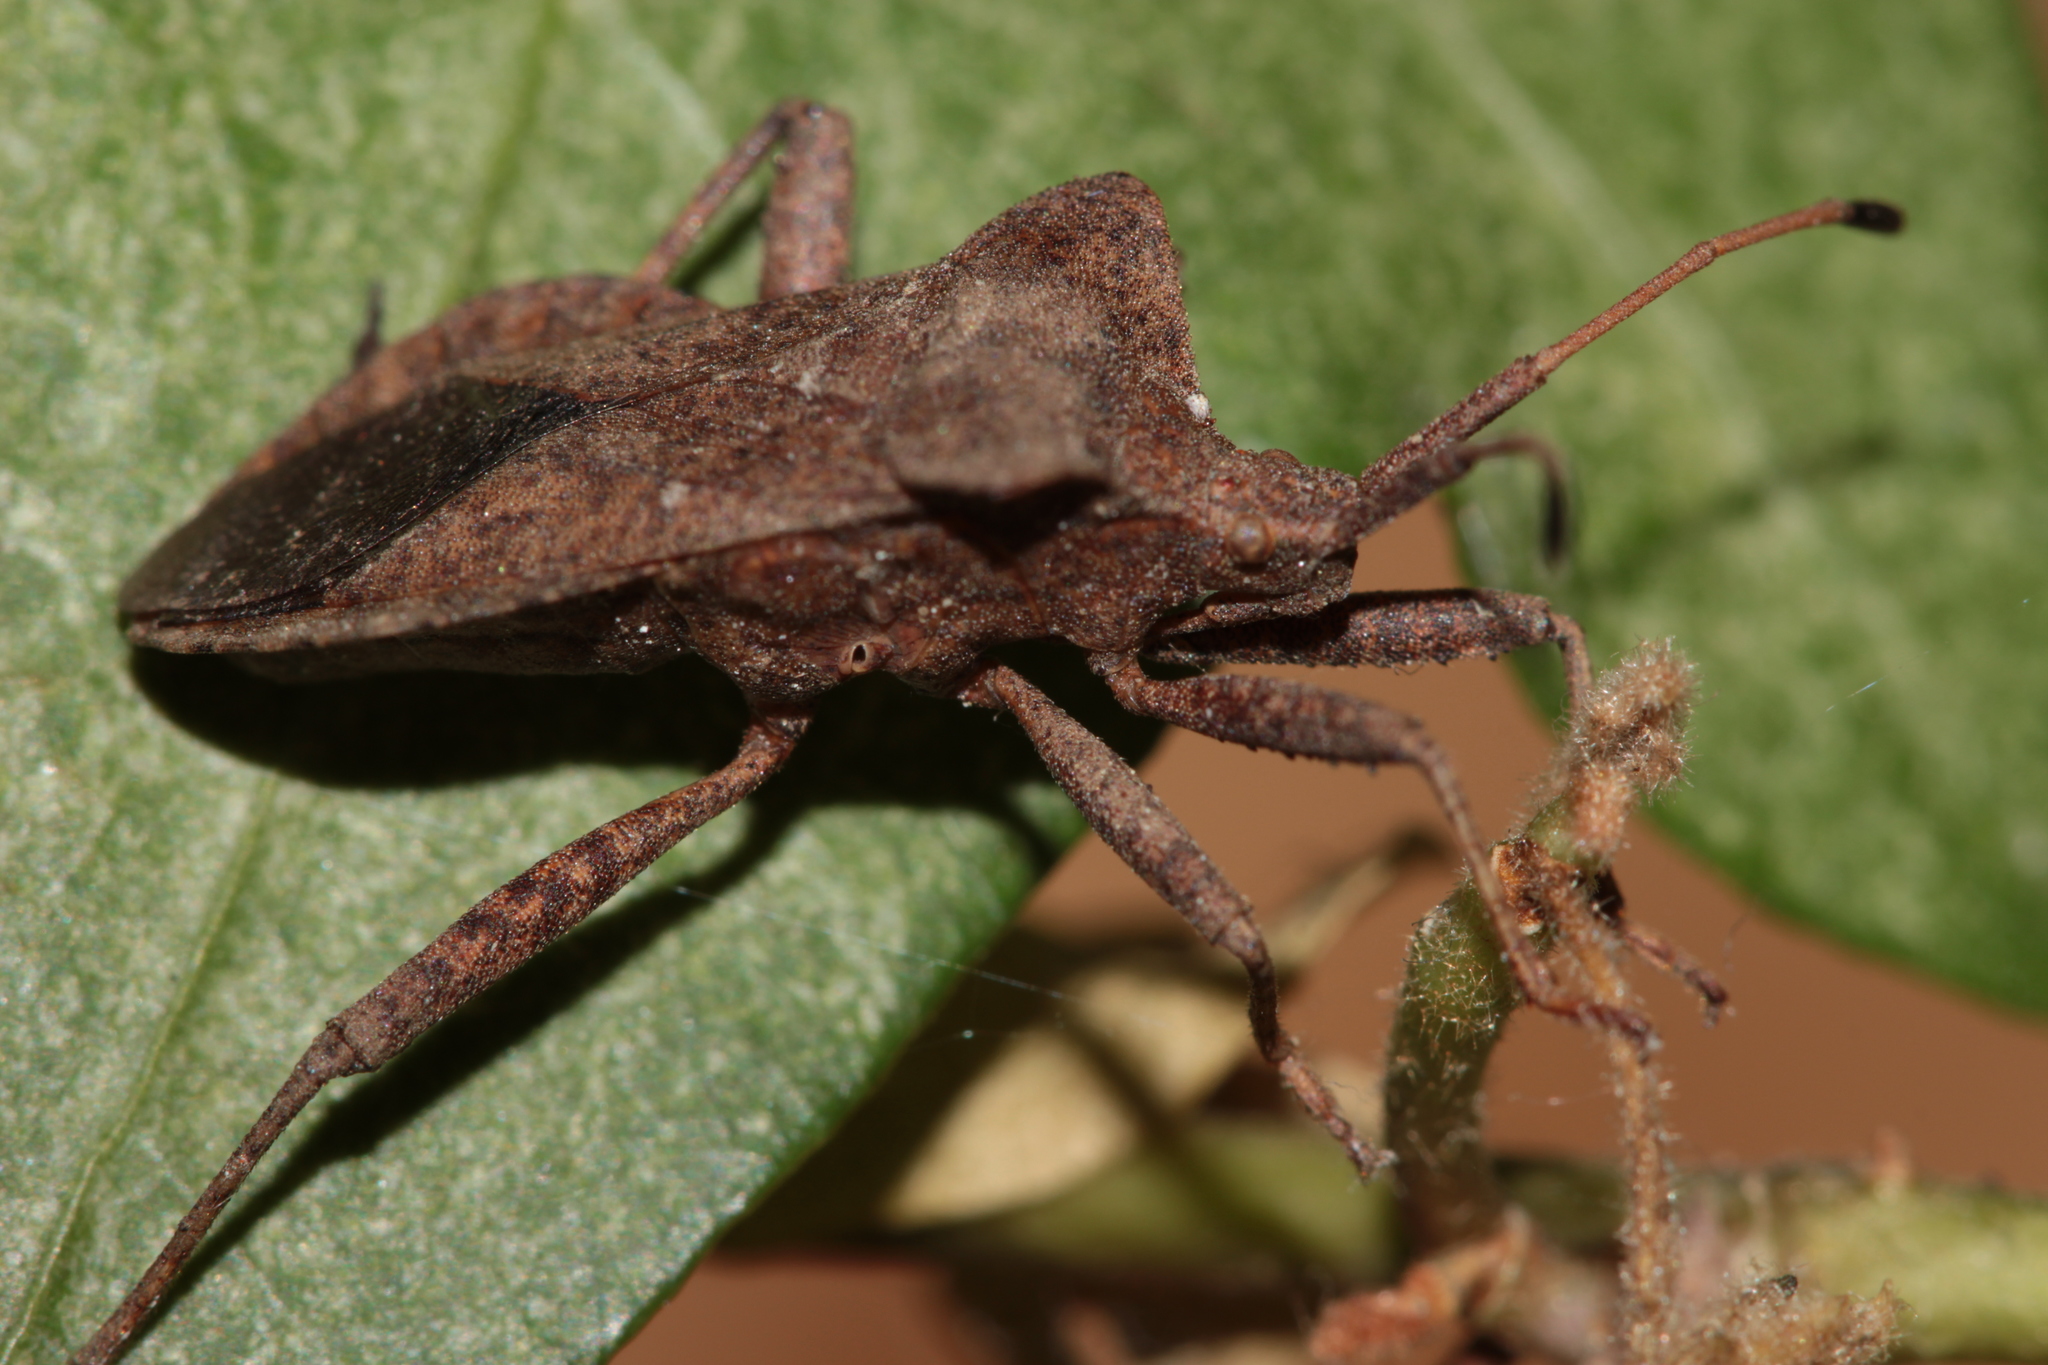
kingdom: Animalia
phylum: Arthropoda
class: Insecta
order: Hemiptera
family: Coreidae
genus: Coreus
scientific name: Coreus marginatus
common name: Dock bug
